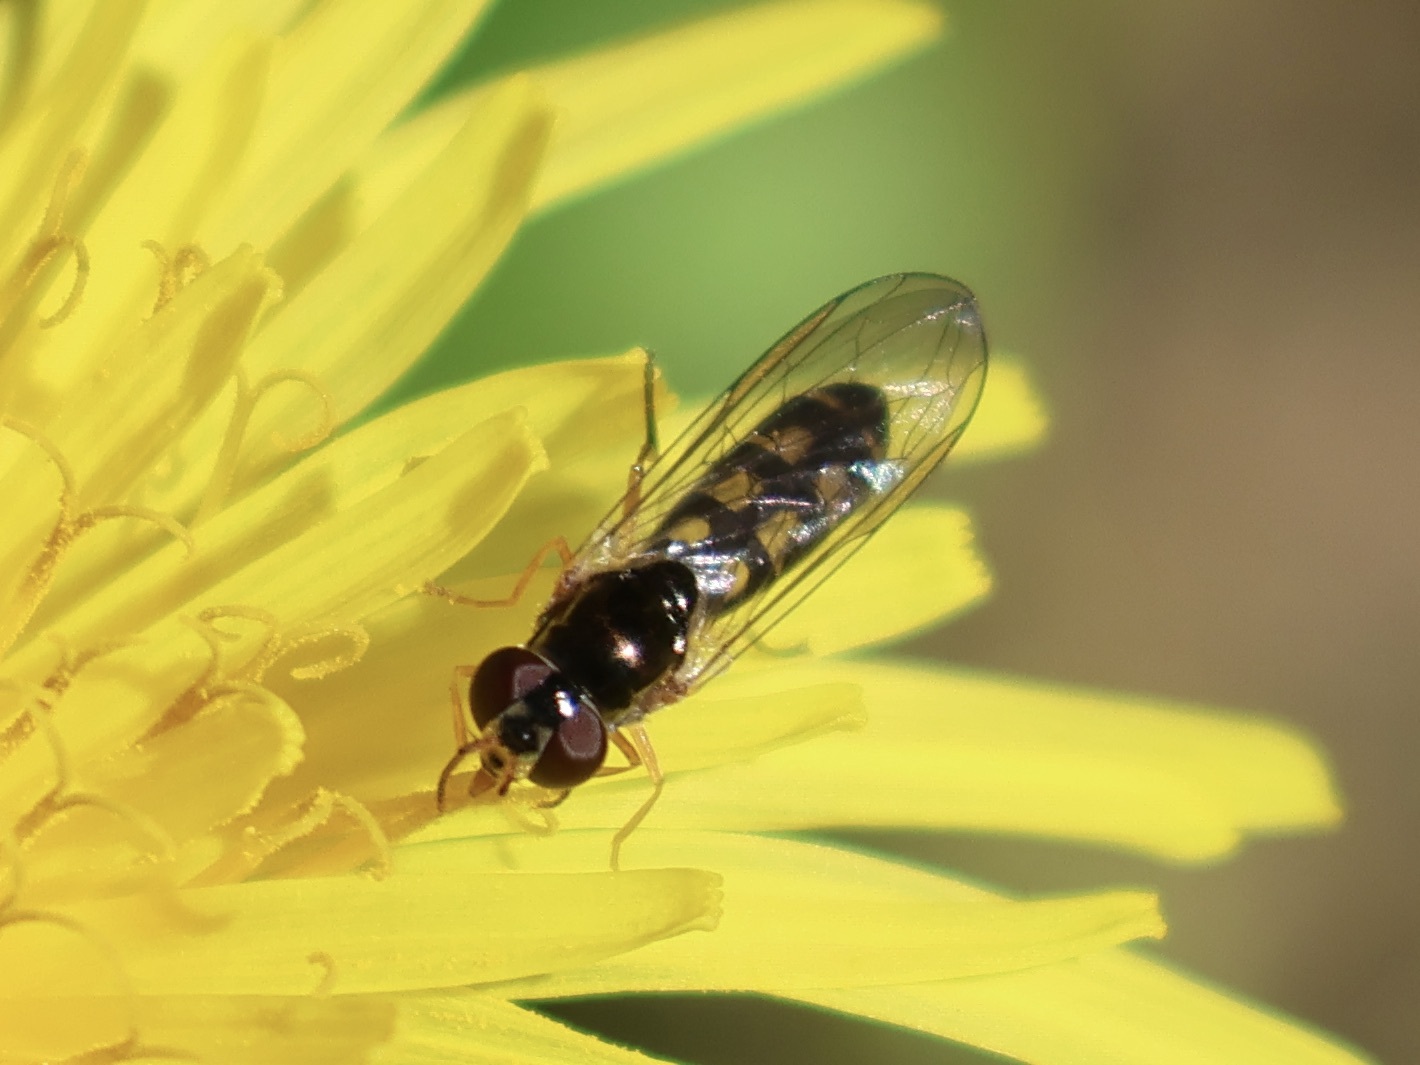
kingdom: Animalia
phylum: Arthropoda
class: Insecta
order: Diptera
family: Syrphidae
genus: Melanostoma
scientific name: Melanostoma scalare
